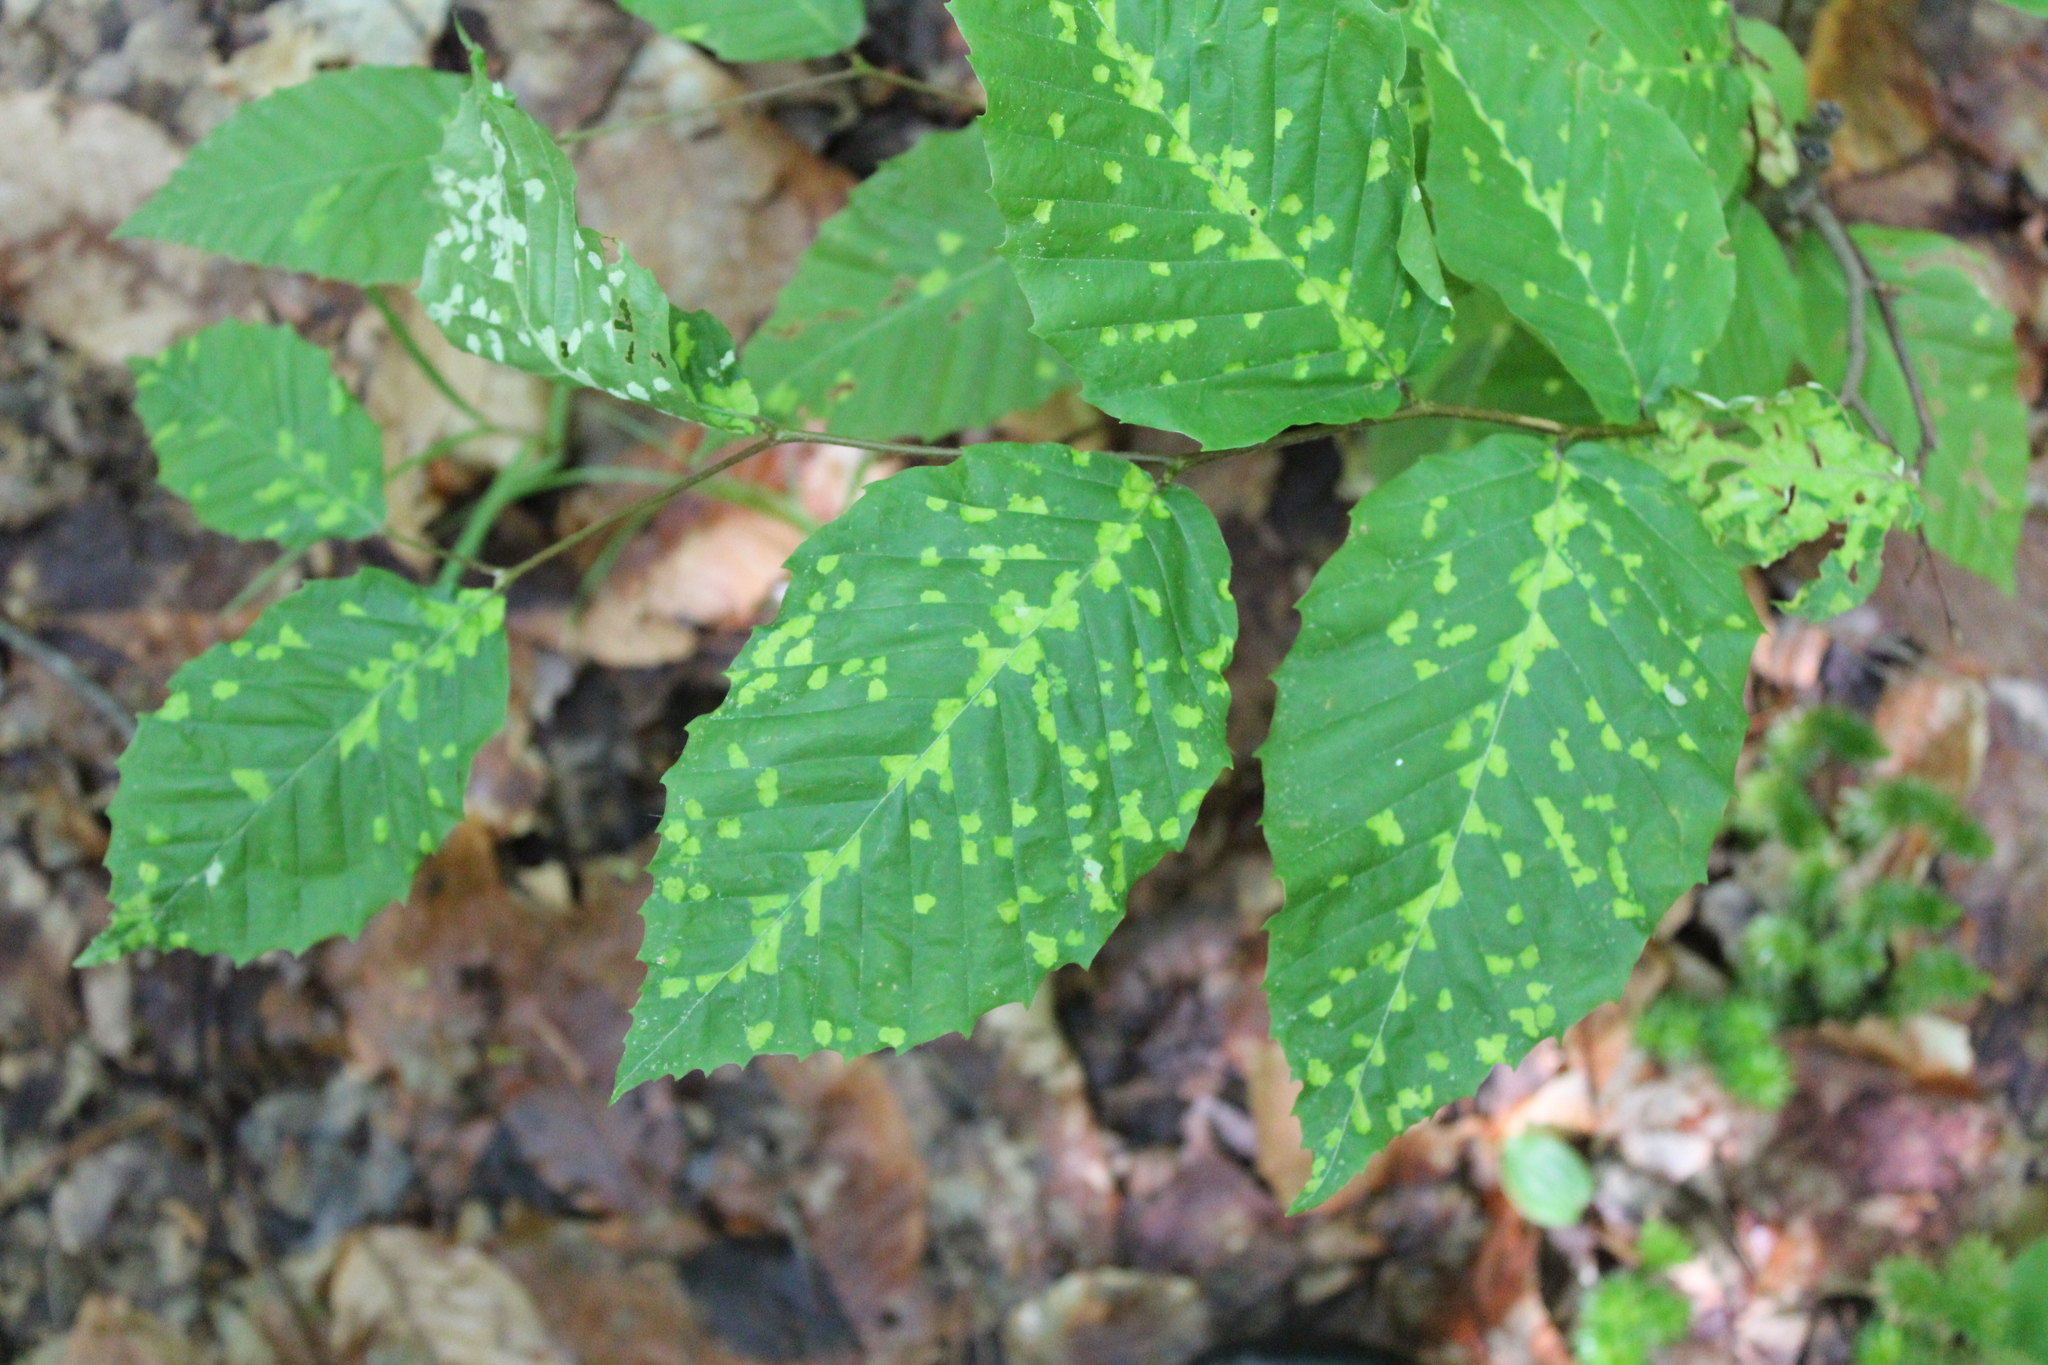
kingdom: Animalia
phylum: Arthropoda
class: Arachnida
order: Trombidiformes
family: Eriophyidae
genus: Acalitus
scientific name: Acalitus
